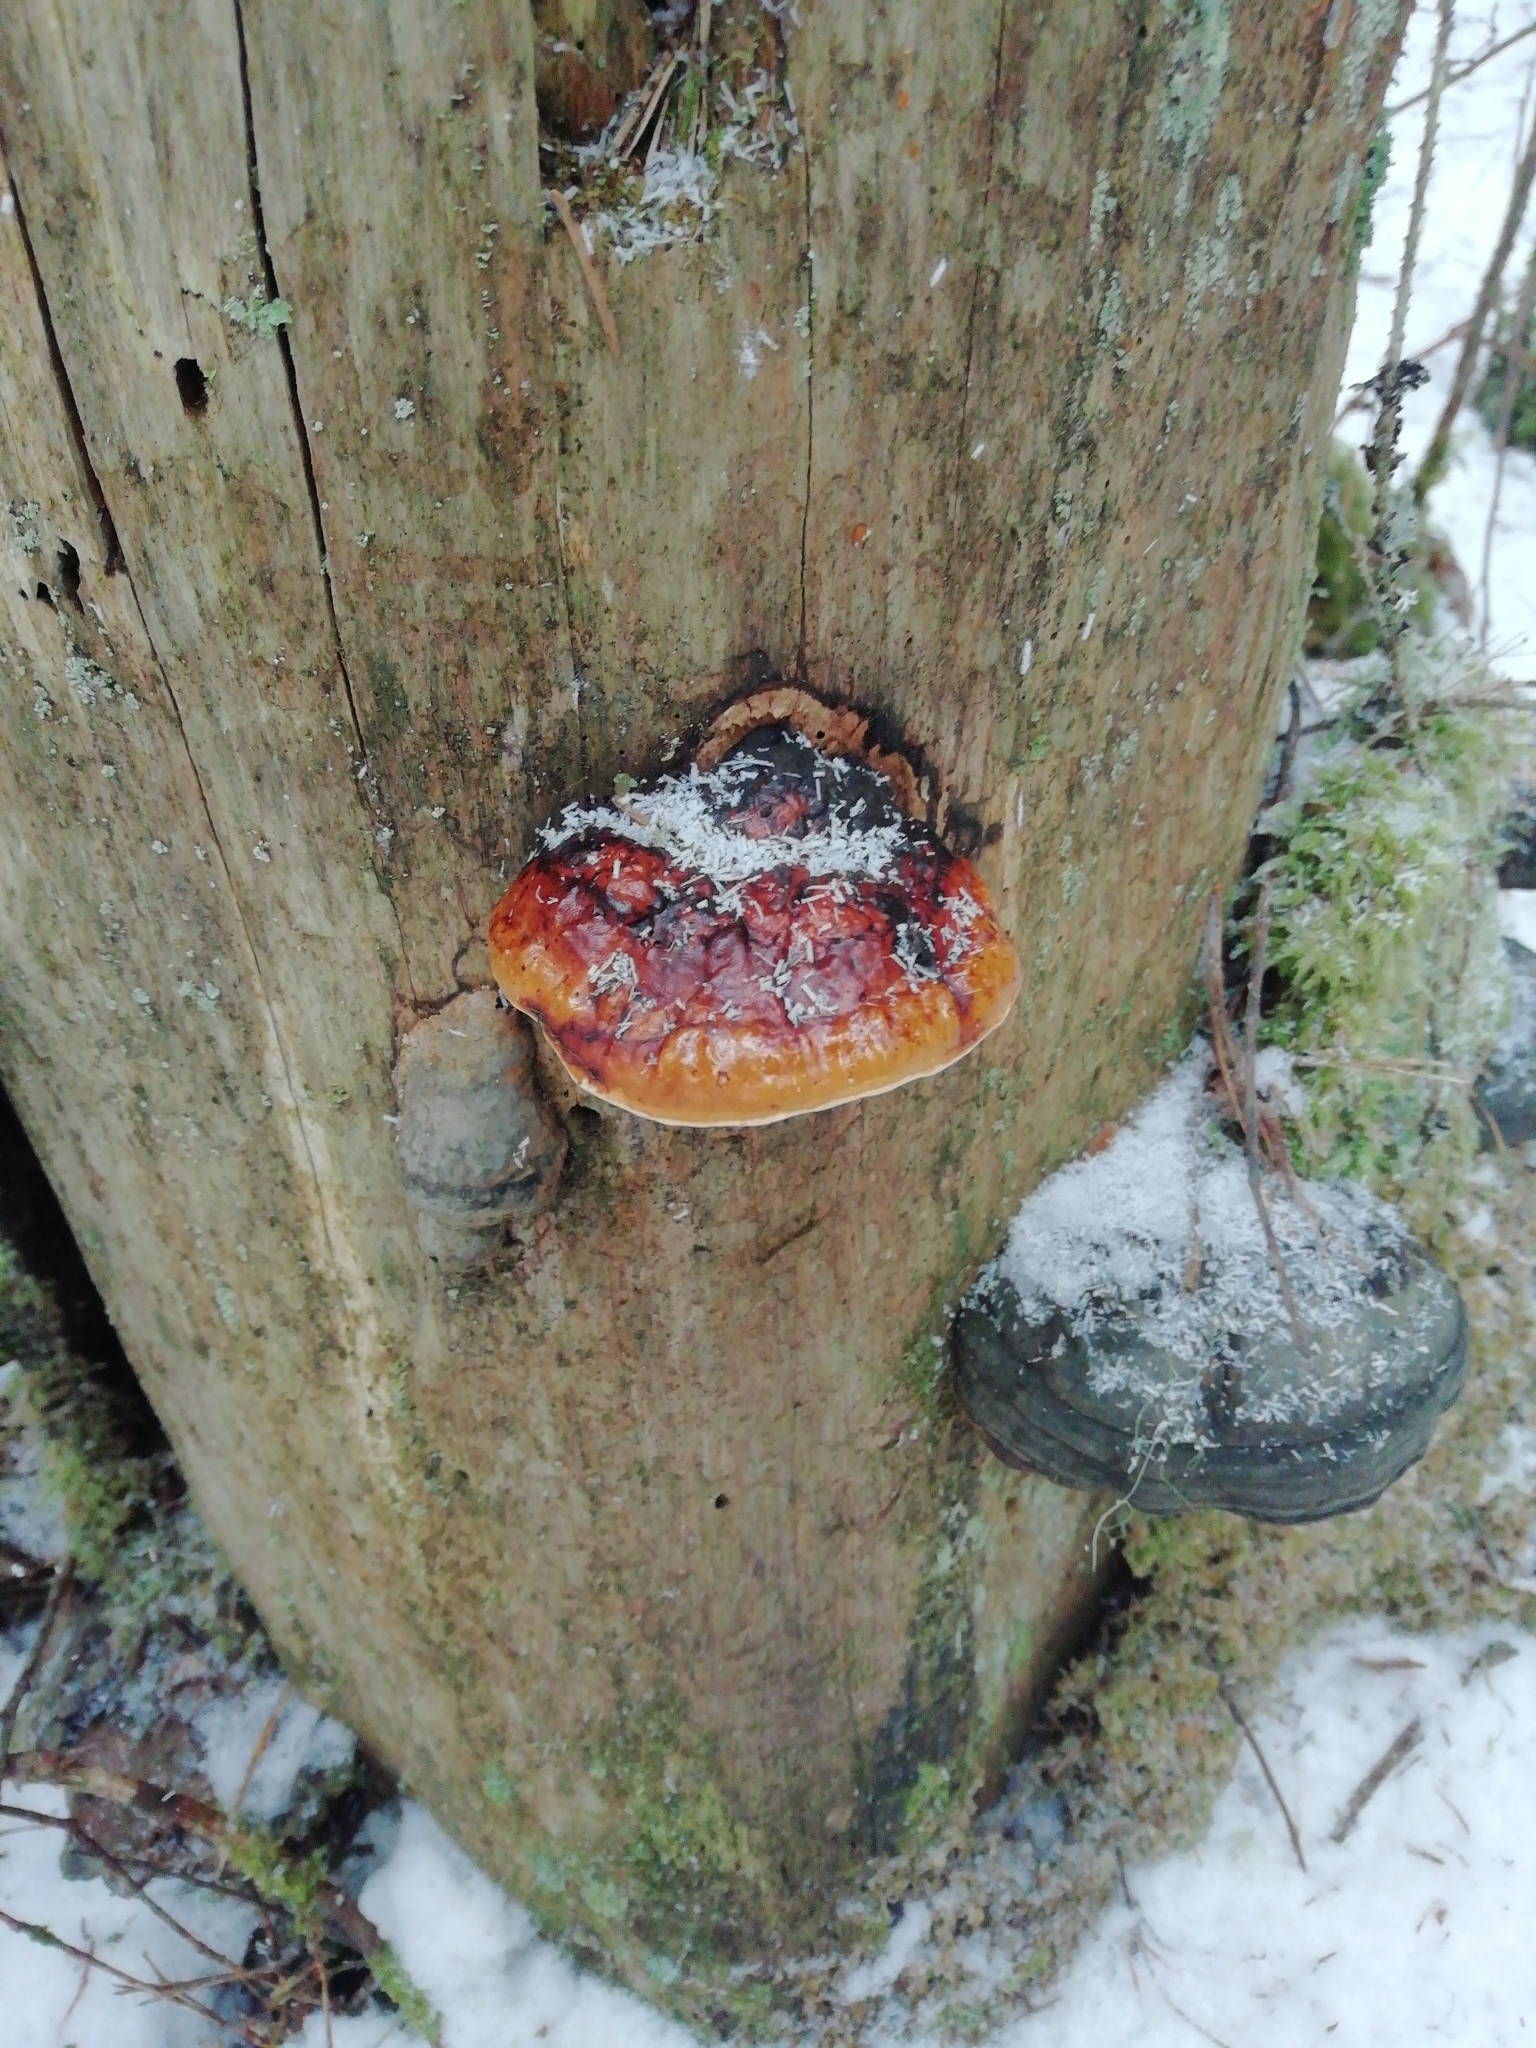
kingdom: Fungi
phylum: Basidiomycota
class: Agaricomycetes
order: Polyporales
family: Fomitopsidaceae
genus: Fomitopsis
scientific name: Fomitopsis pinicola
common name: Red-belted bracket
